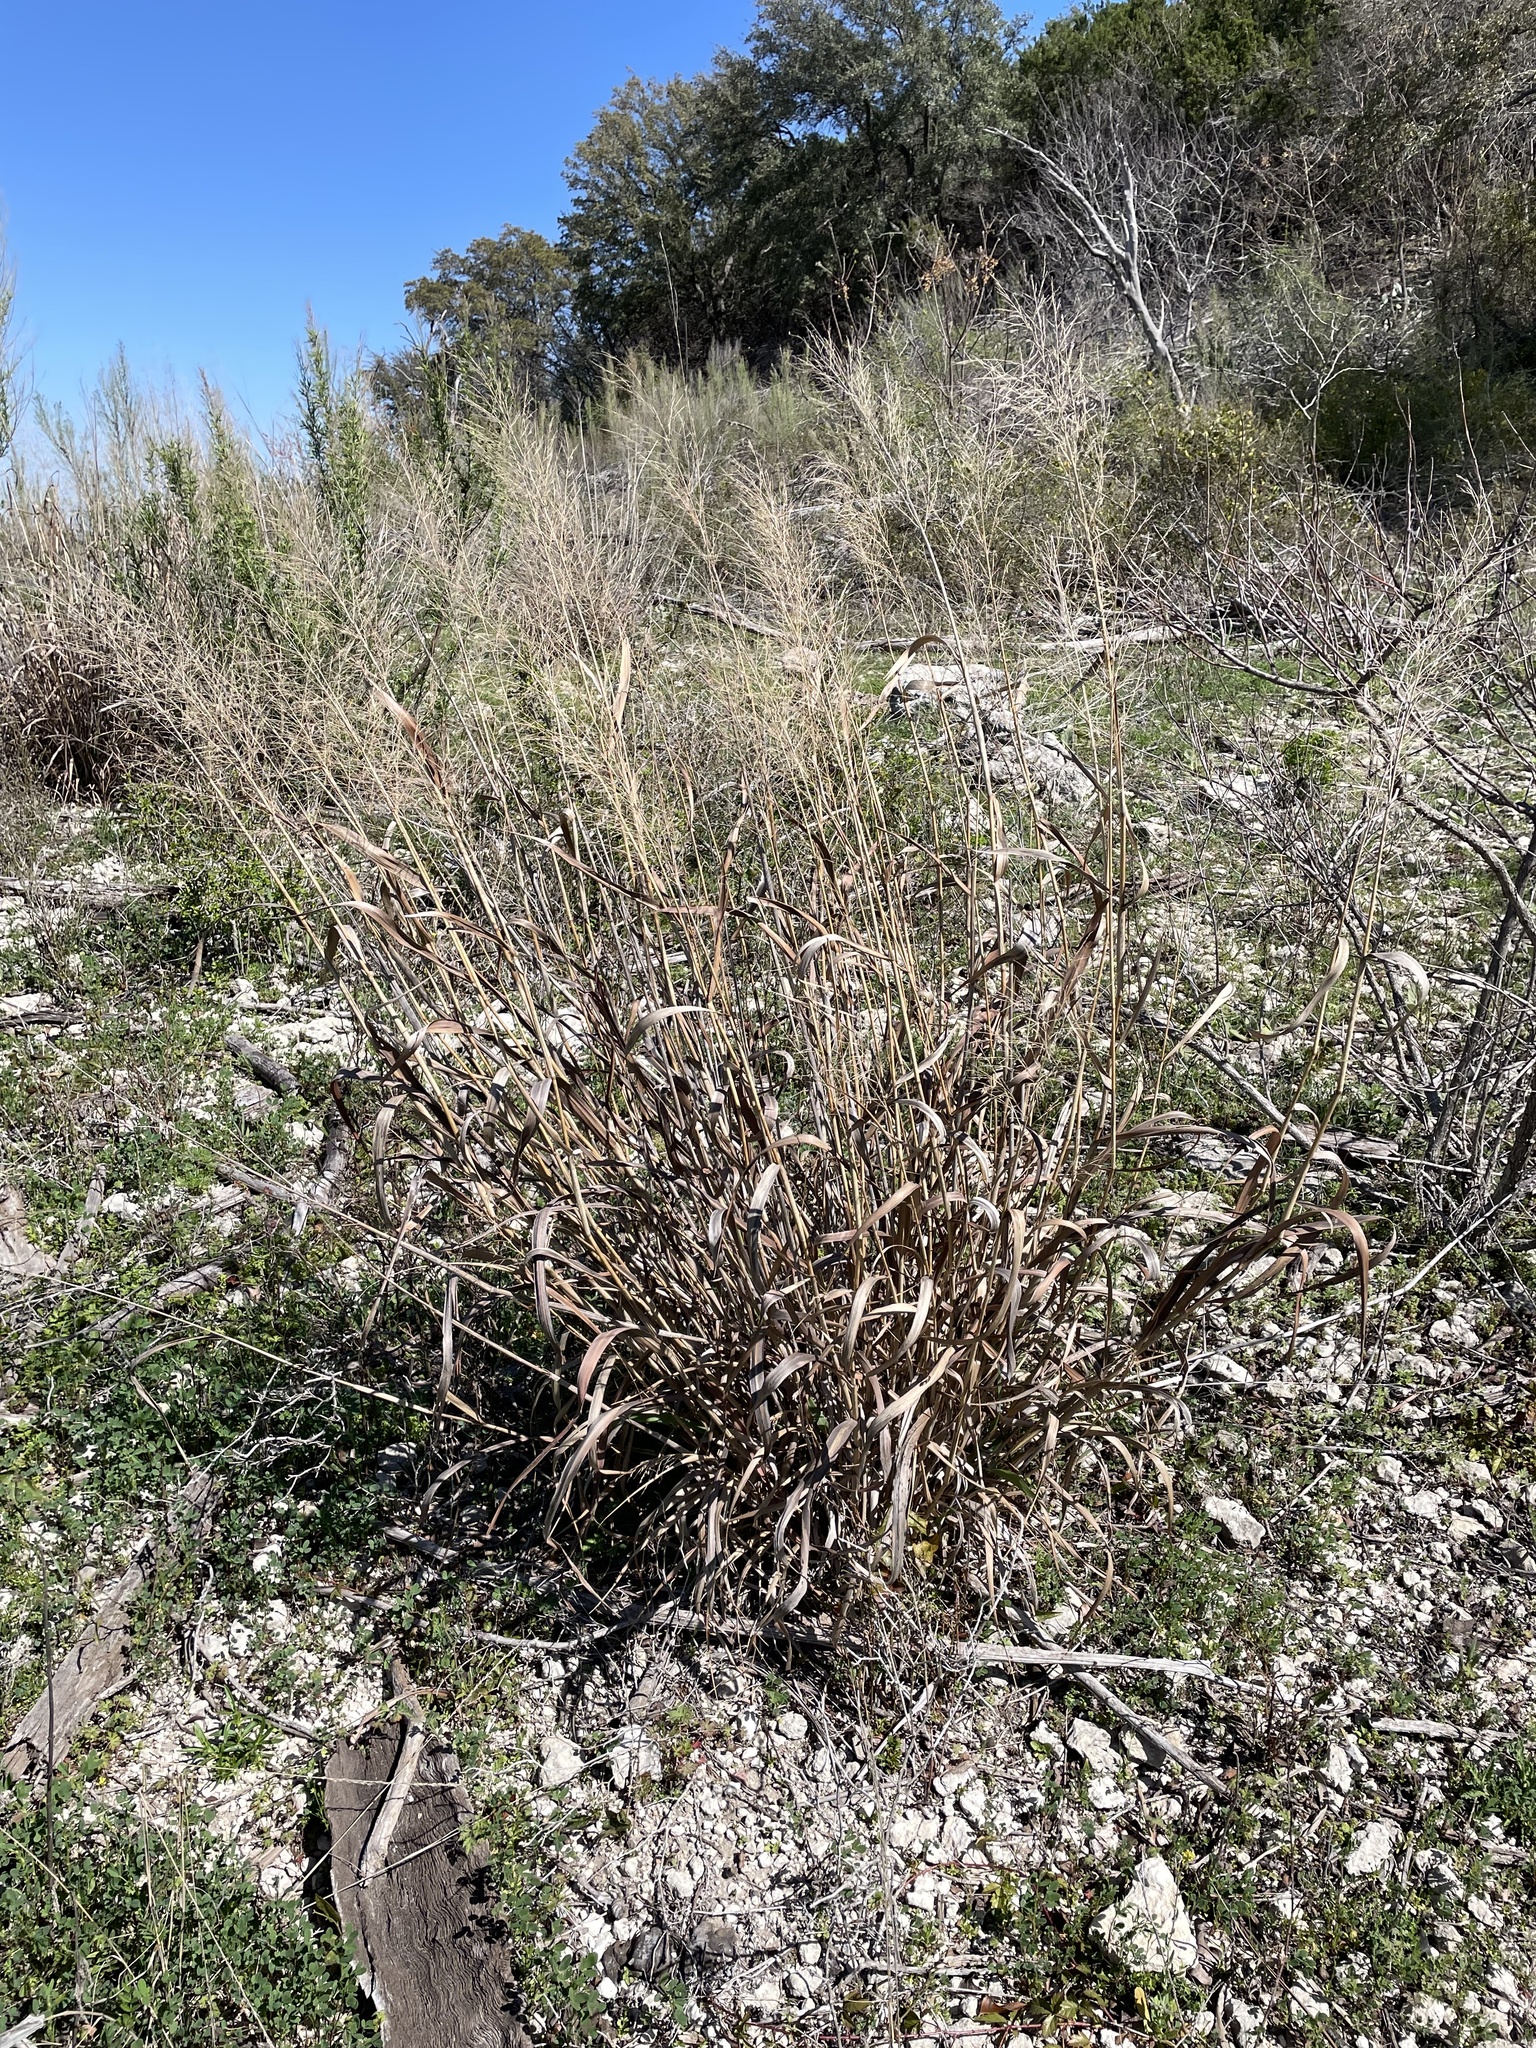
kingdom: Plantae
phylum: Tracheophyta
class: Liliopsida
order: Poales
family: Poaceae
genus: Panicum
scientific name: Panicum virgatum
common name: Switchgrass
